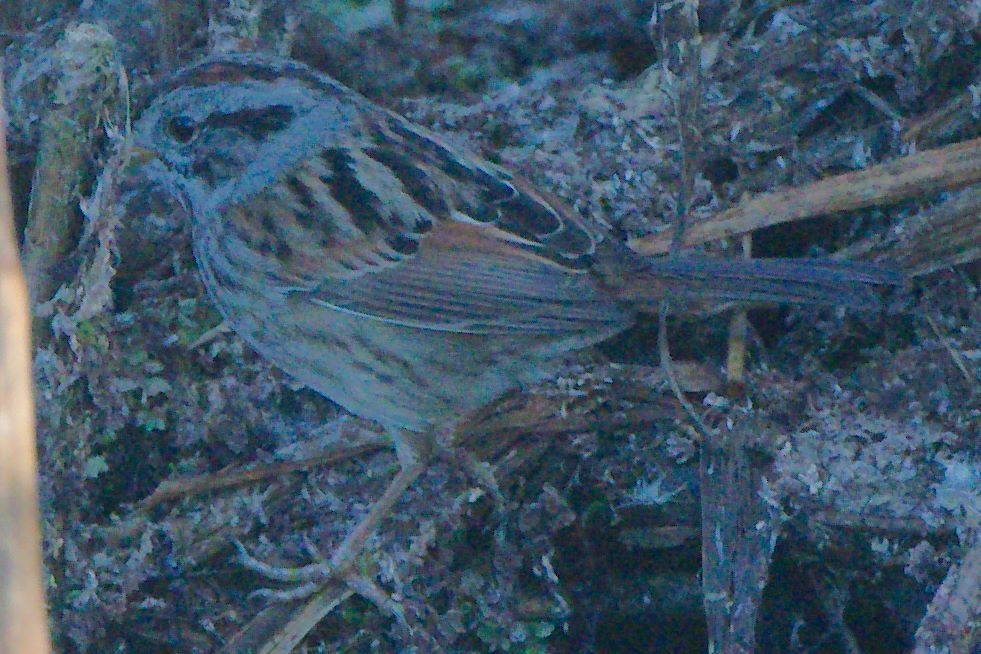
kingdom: Animalia
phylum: Chordata
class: Aves
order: Passeriformes
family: Passerellidae
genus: Melospiza
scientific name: Melospiza georgiana
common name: Swamp sparrow
